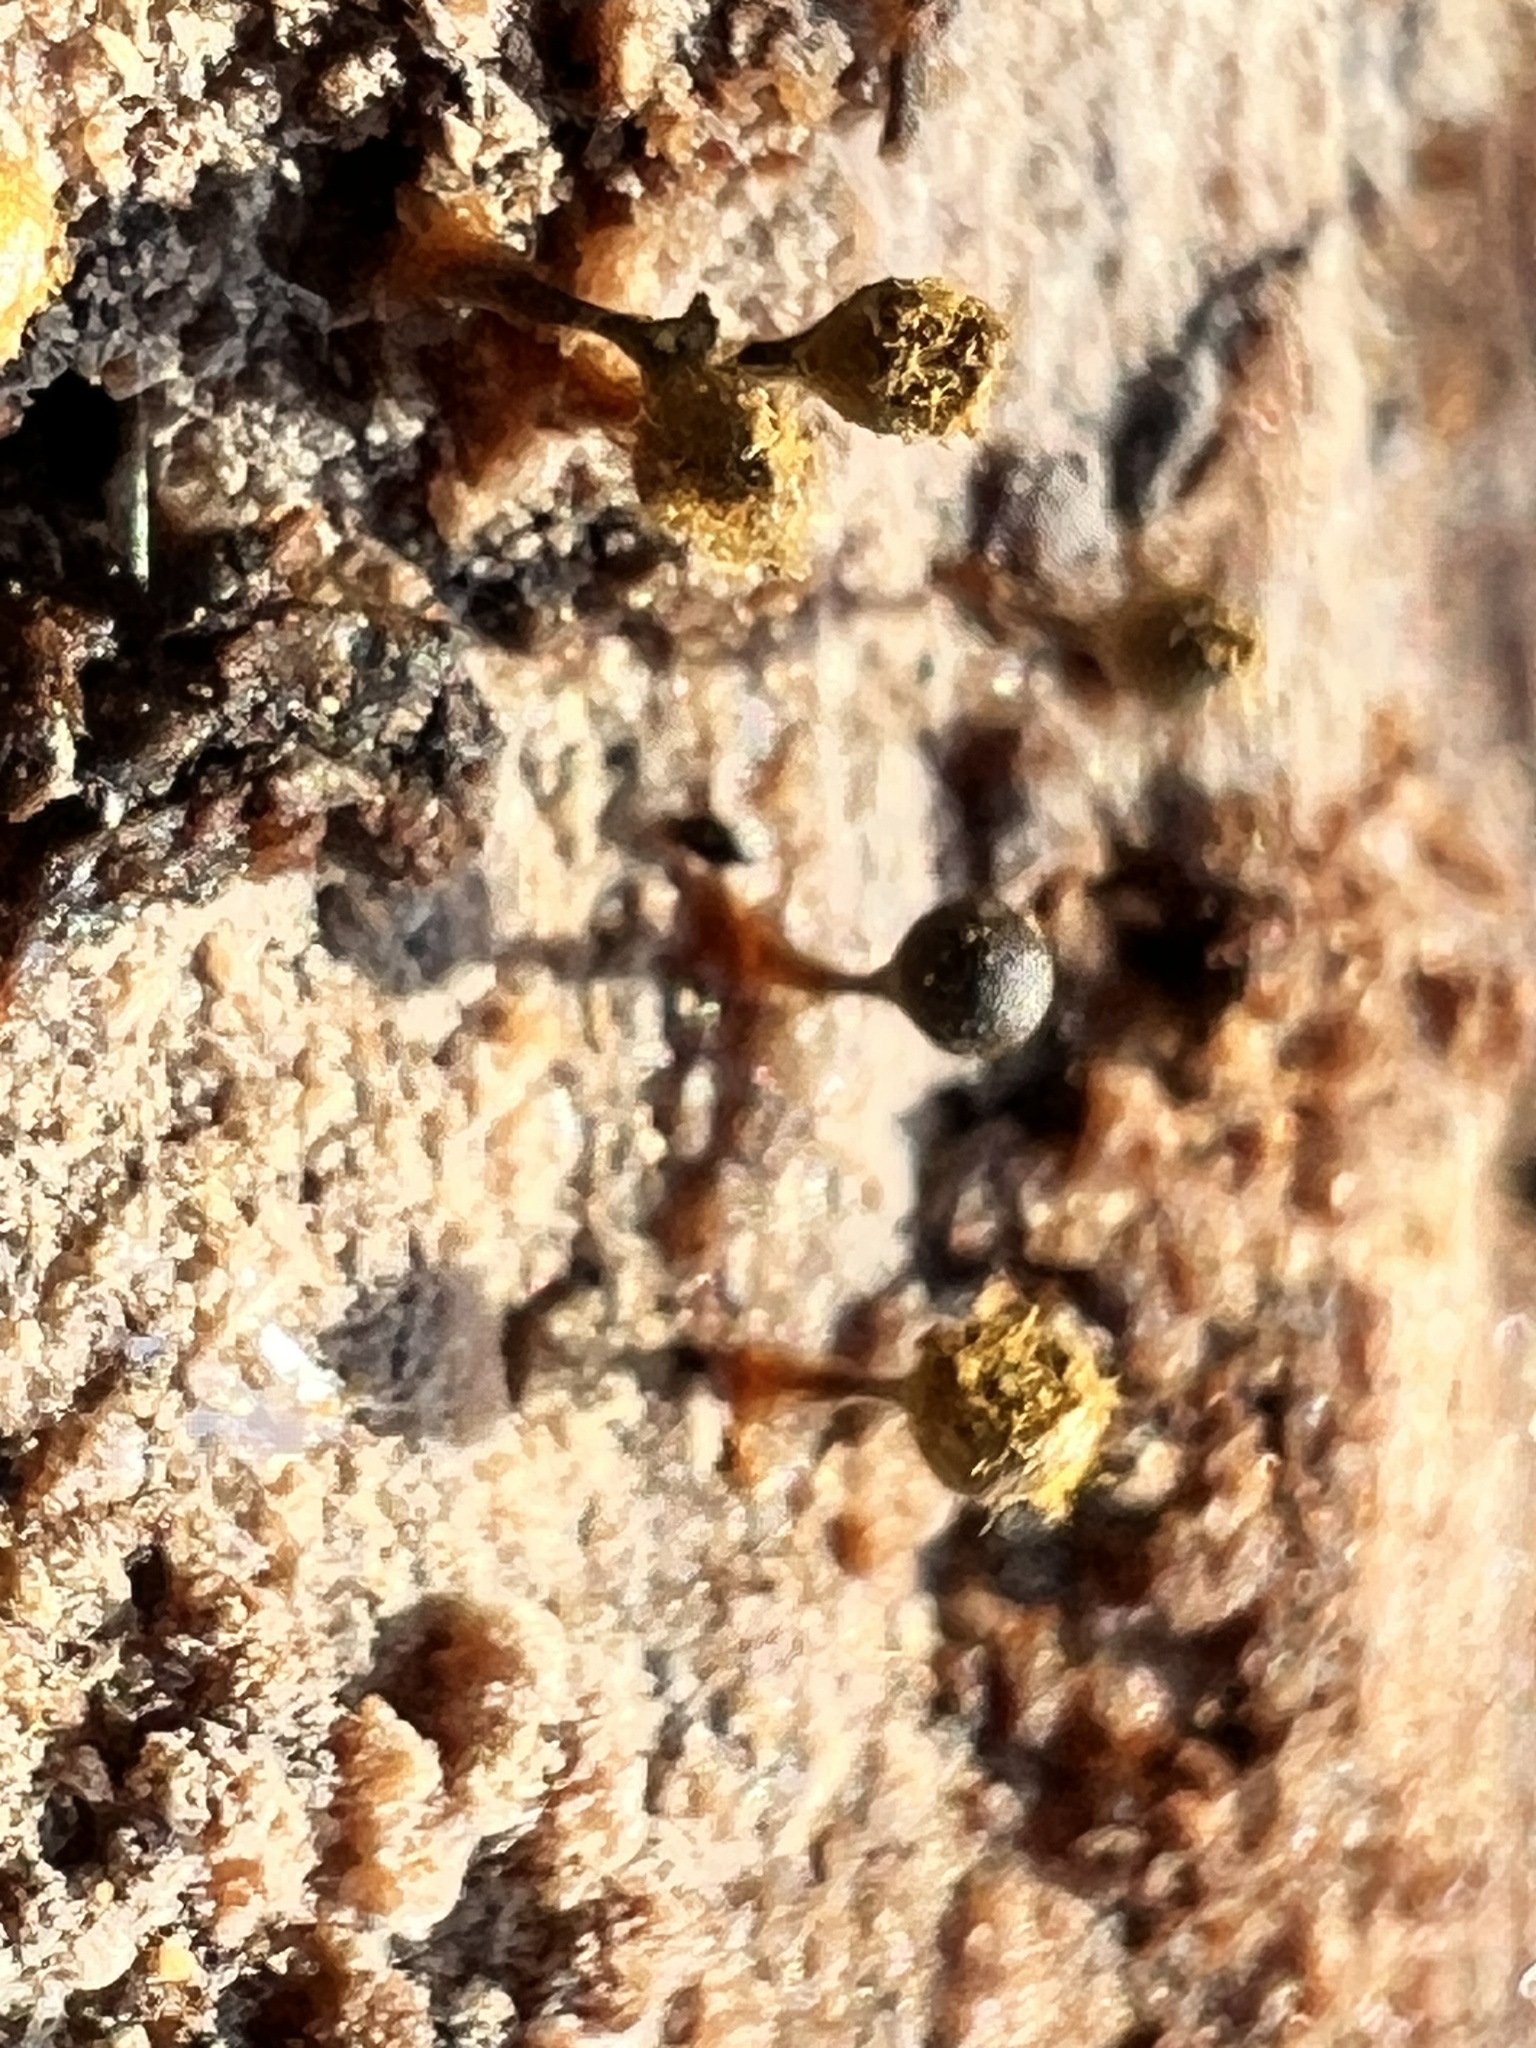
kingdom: Protozoa
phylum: Mycetozoa
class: Myxomycetes
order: Trichiales
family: Arcyriaceae
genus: Hemitrichia
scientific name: Hemitrichia calyculata
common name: Push pin slime mold
